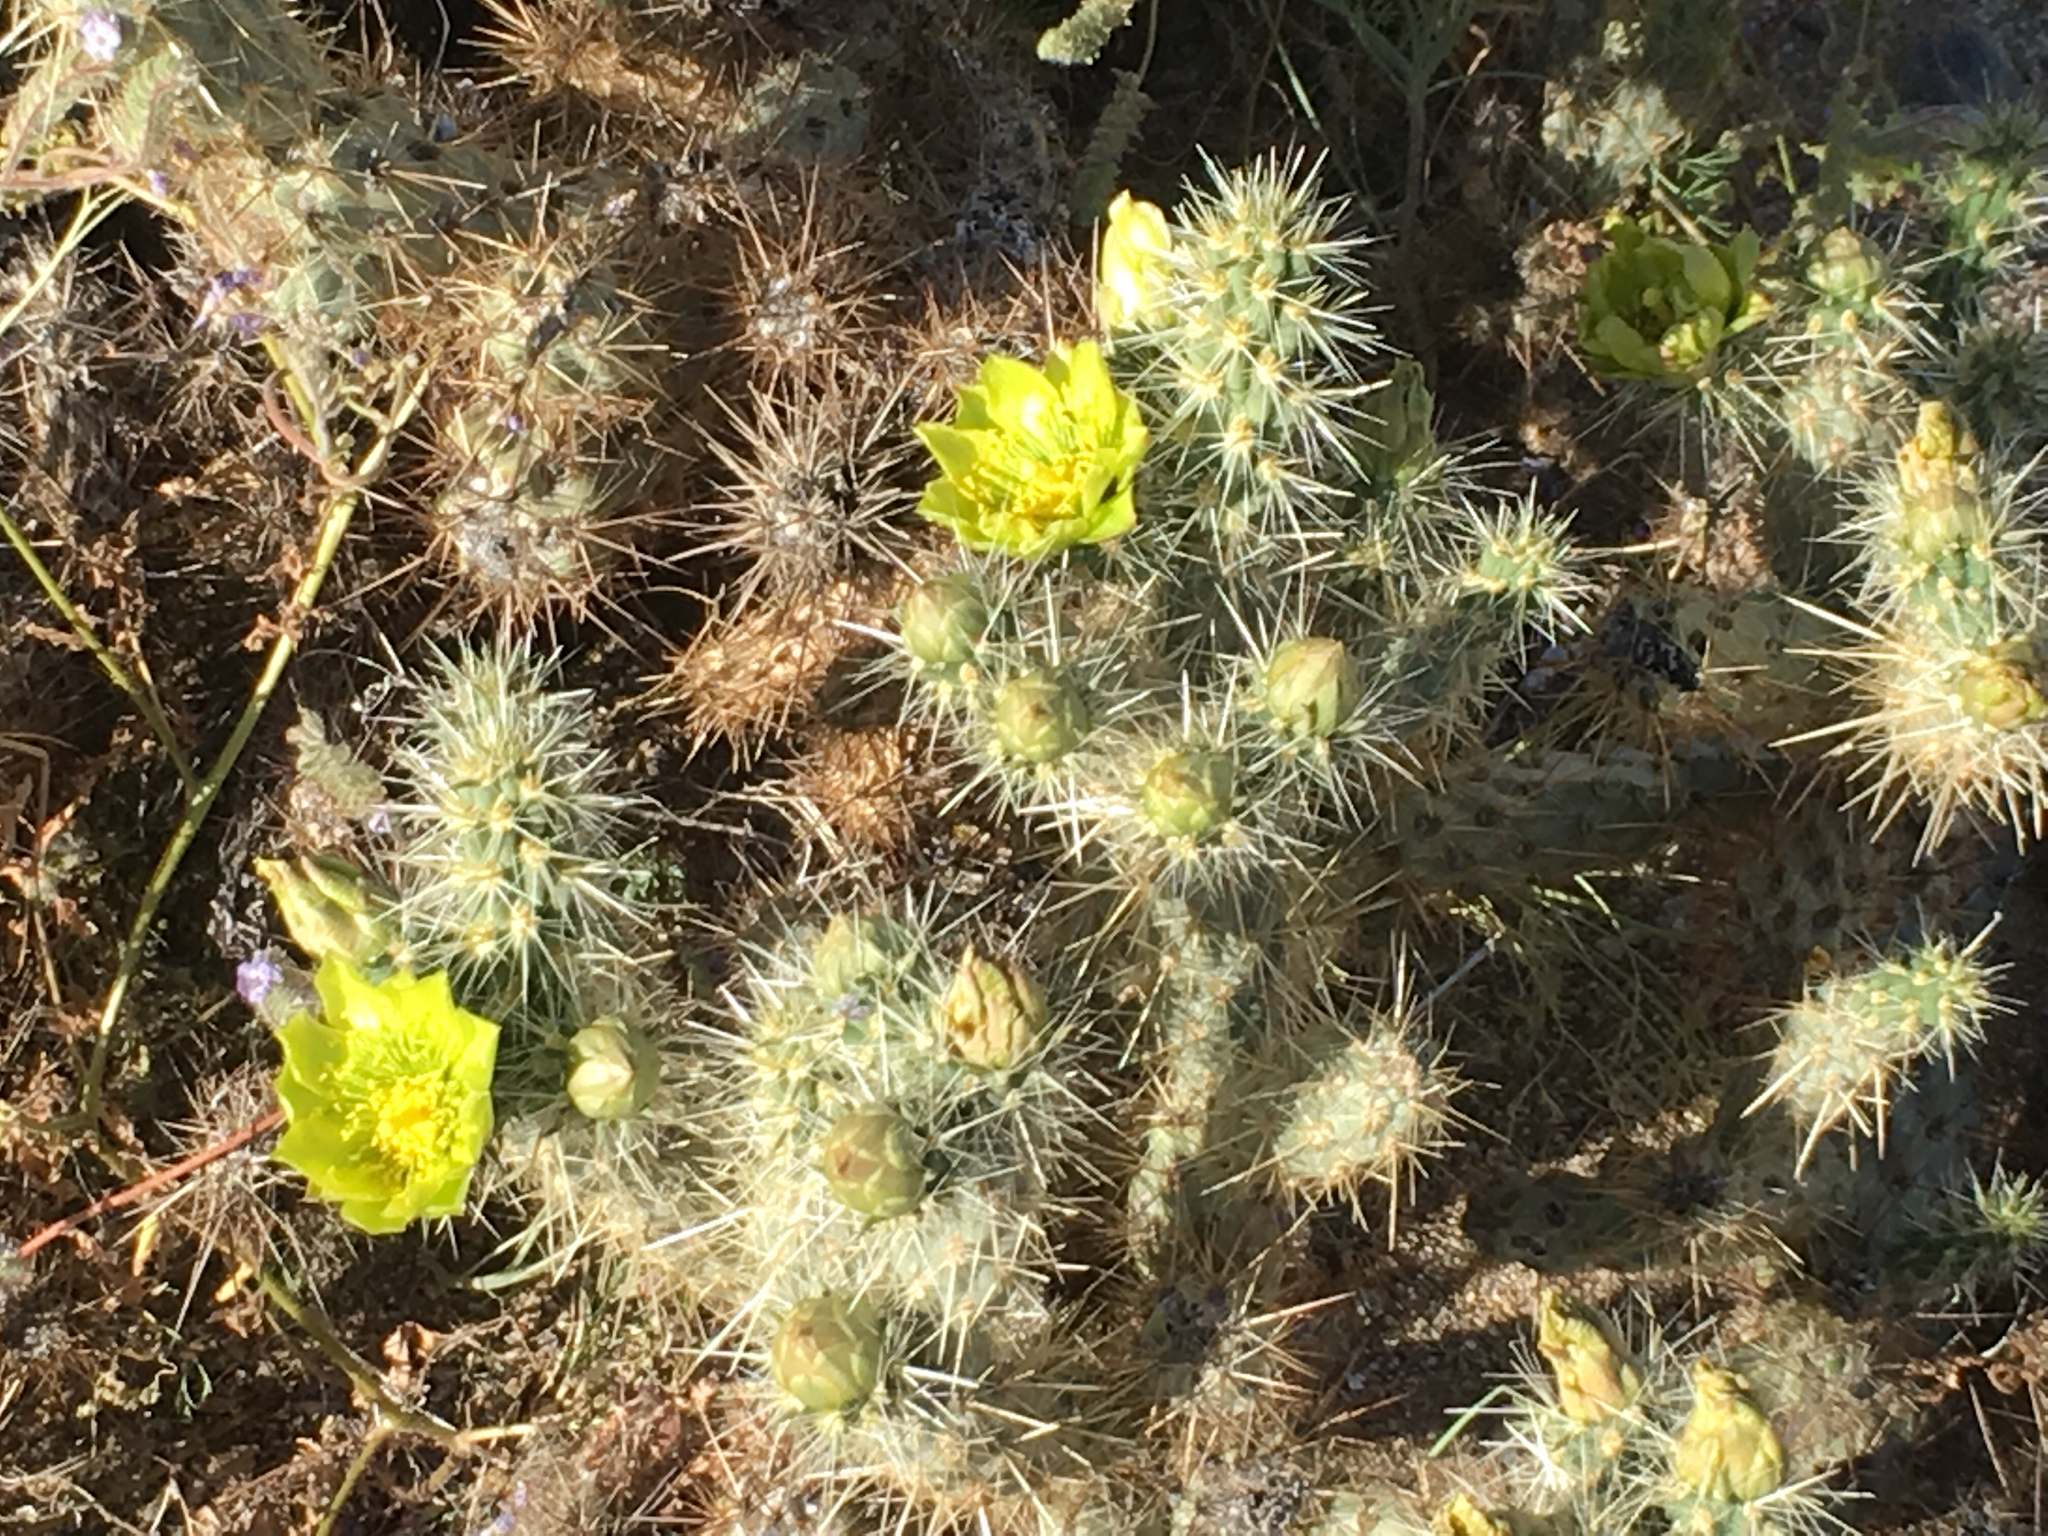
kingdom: Plantae
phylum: Tracheophyta
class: Magnoliopsida
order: Caryophyllales
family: Cactaceae
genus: Cylindropuntia
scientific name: Cylindropuntia ganderi
